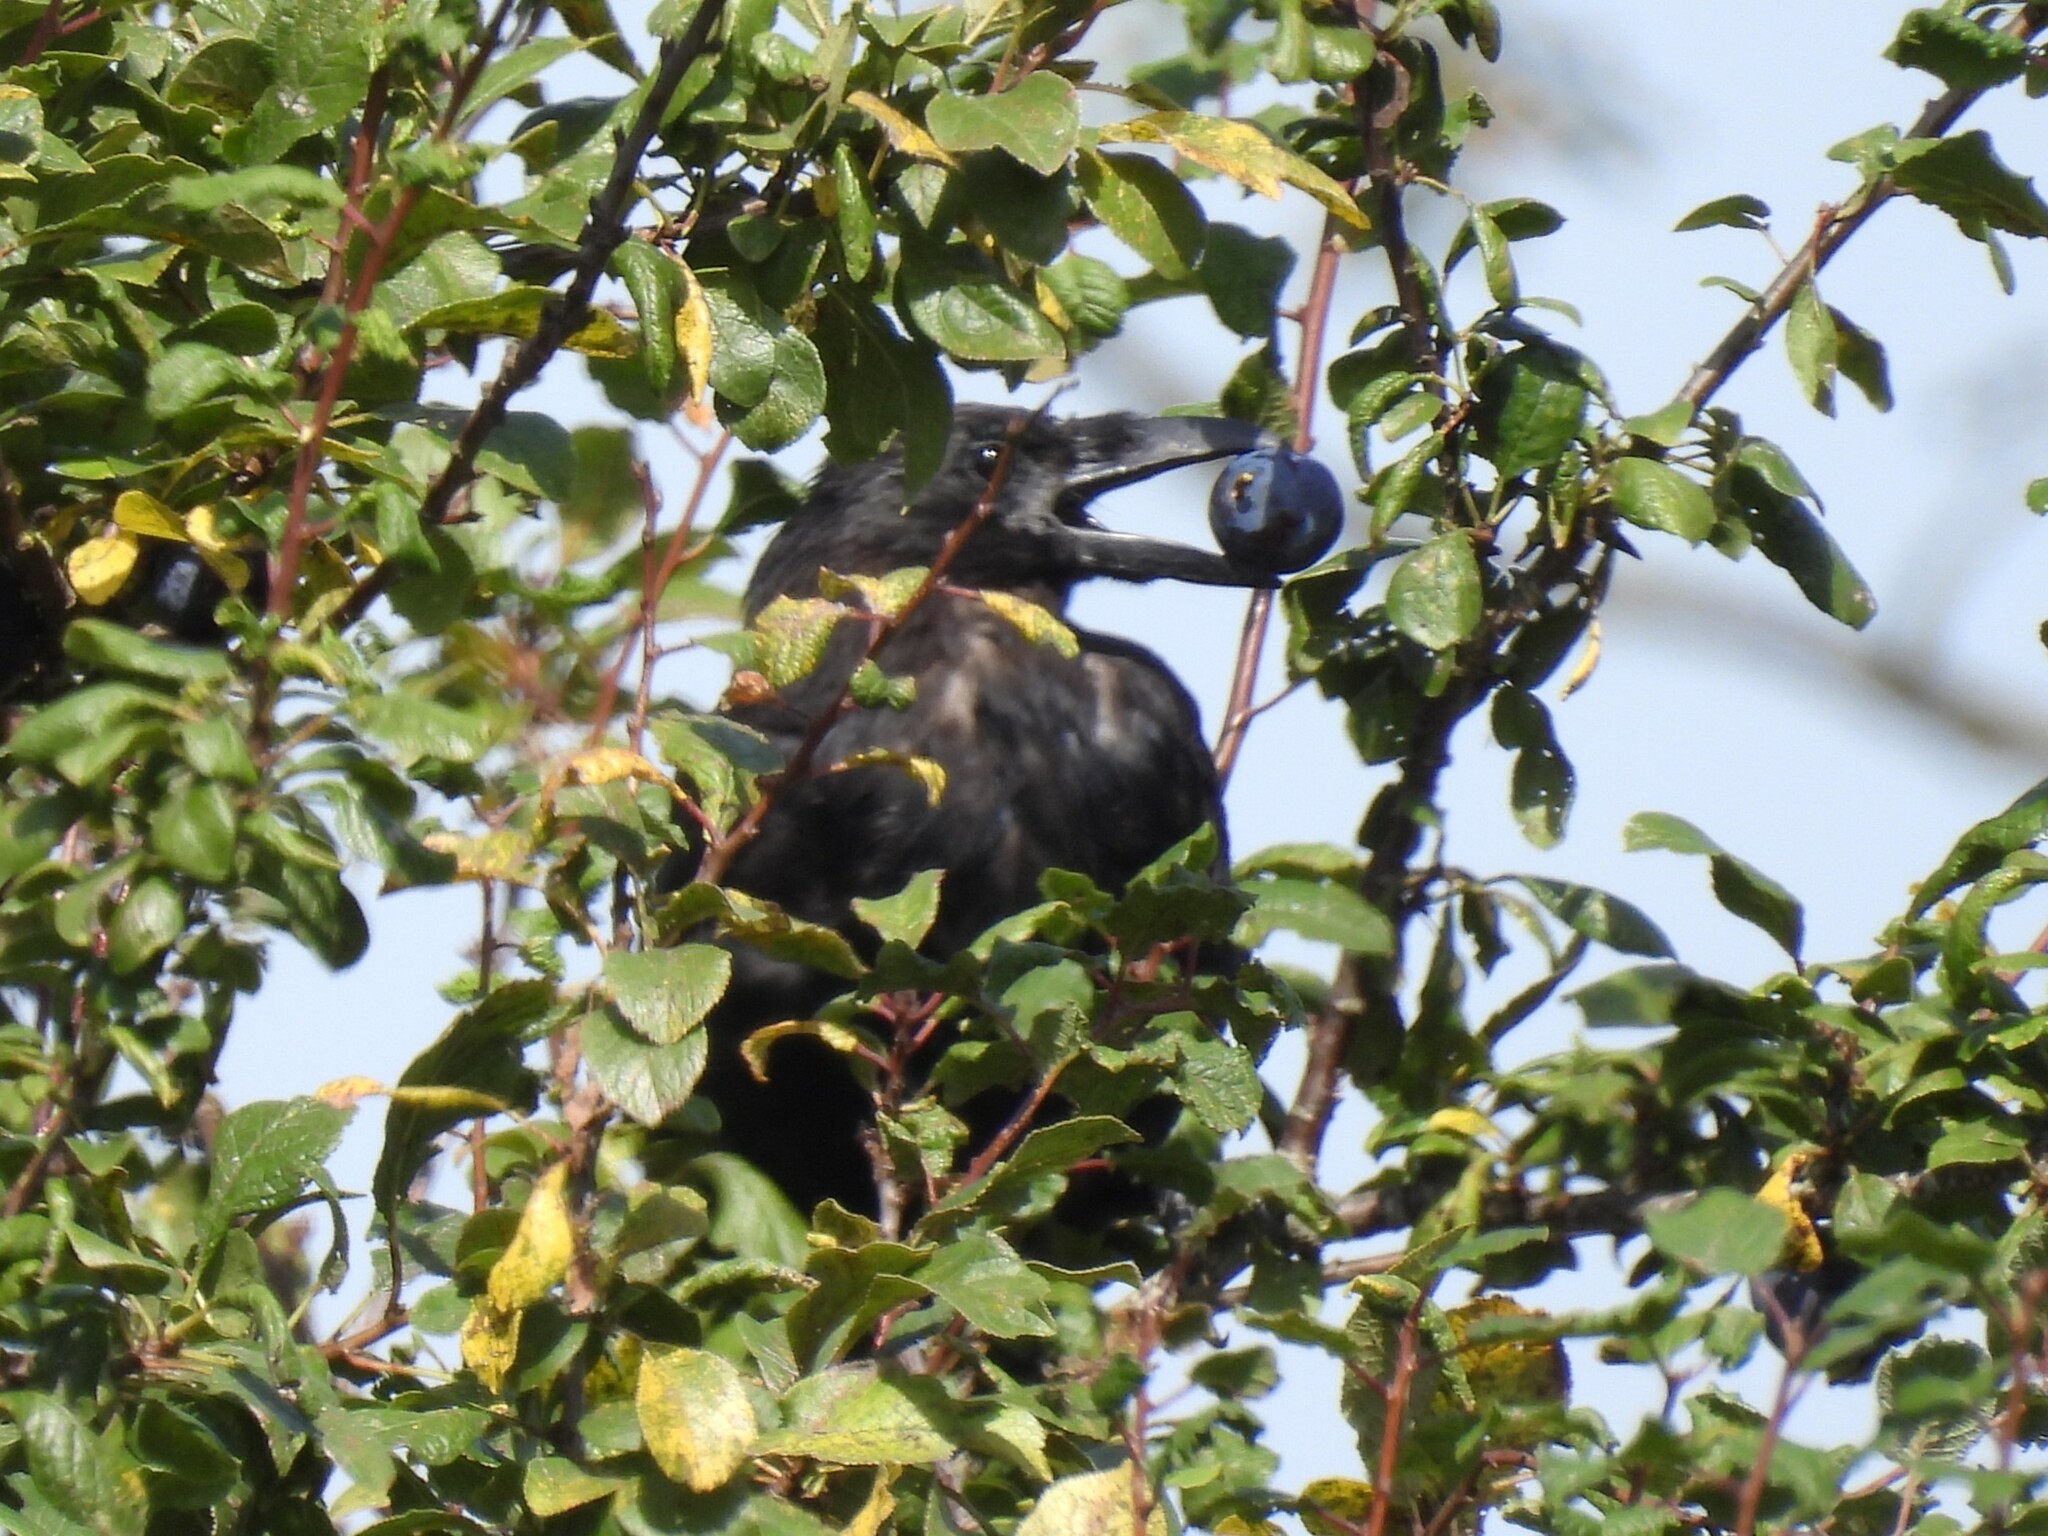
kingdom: Animalia
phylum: Chordata
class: Aves
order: Passeriformes
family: Corvidae
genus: Corvus
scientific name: Corvus corone
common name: Carrion crow
